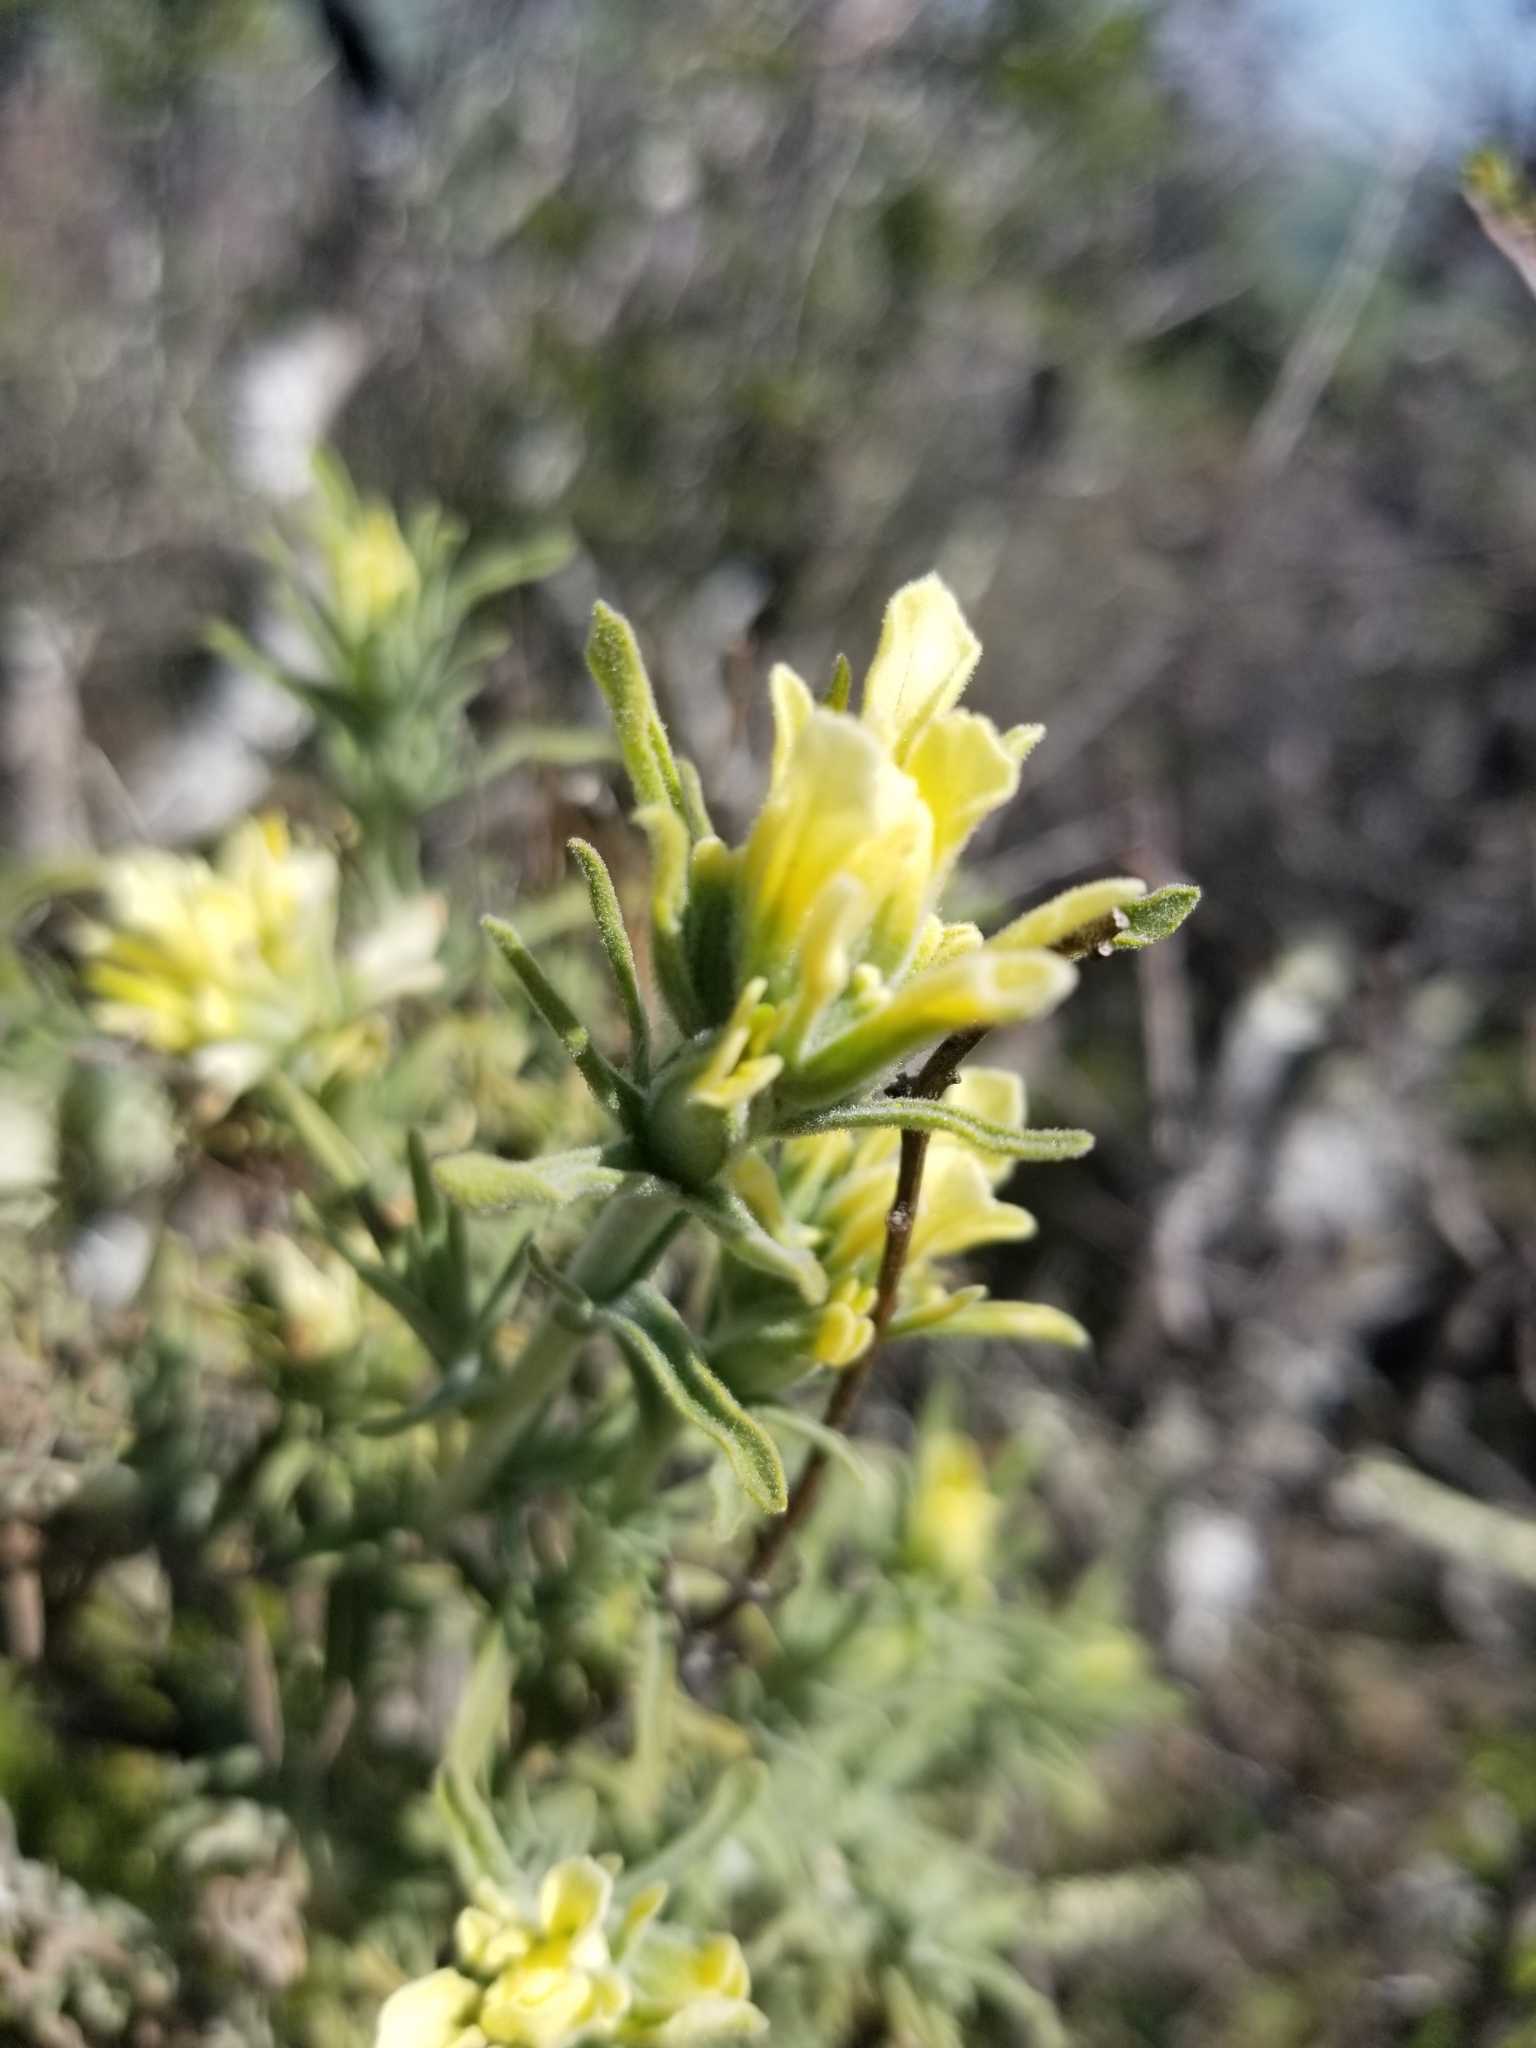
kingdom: Plantae
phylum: Tracheophyta
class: Magnoliopsida
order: Lamiales
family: Orobanchaceae
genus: Castilleja
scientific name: Castilleja foliolosa
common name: Woolly indian paintbrush
